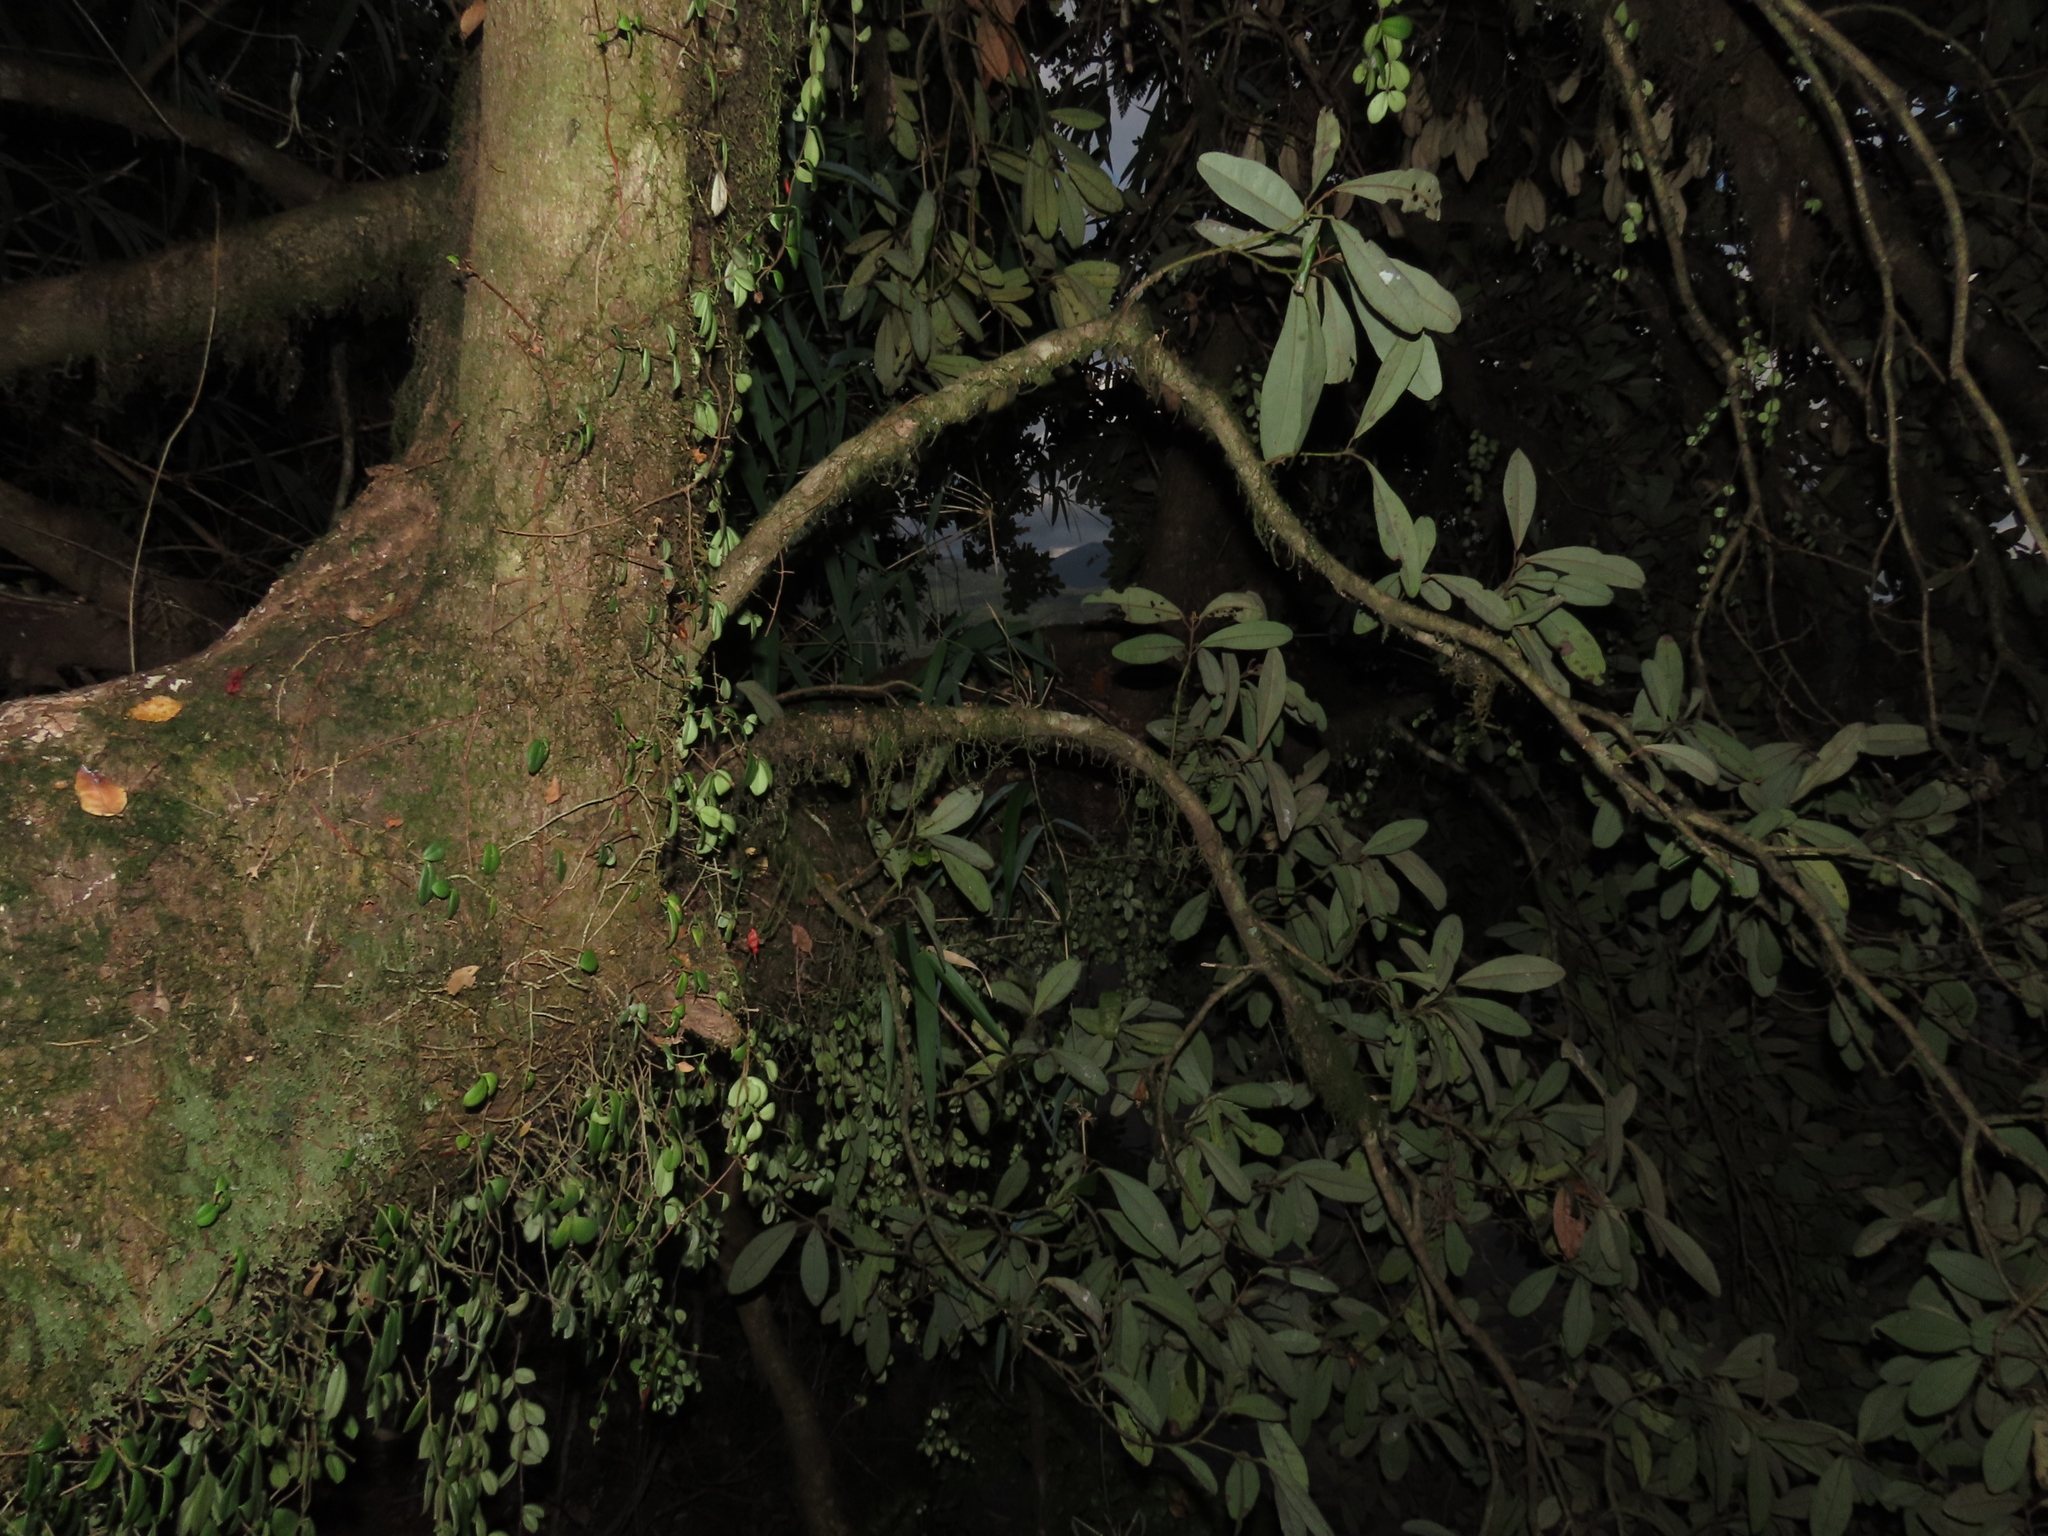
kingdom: Plantae
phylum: Tracheophyta
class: Magnoliopsida
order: Lamiales
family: Gesneriaceae
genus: Sarmienta
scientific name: Sarmienta scandens
